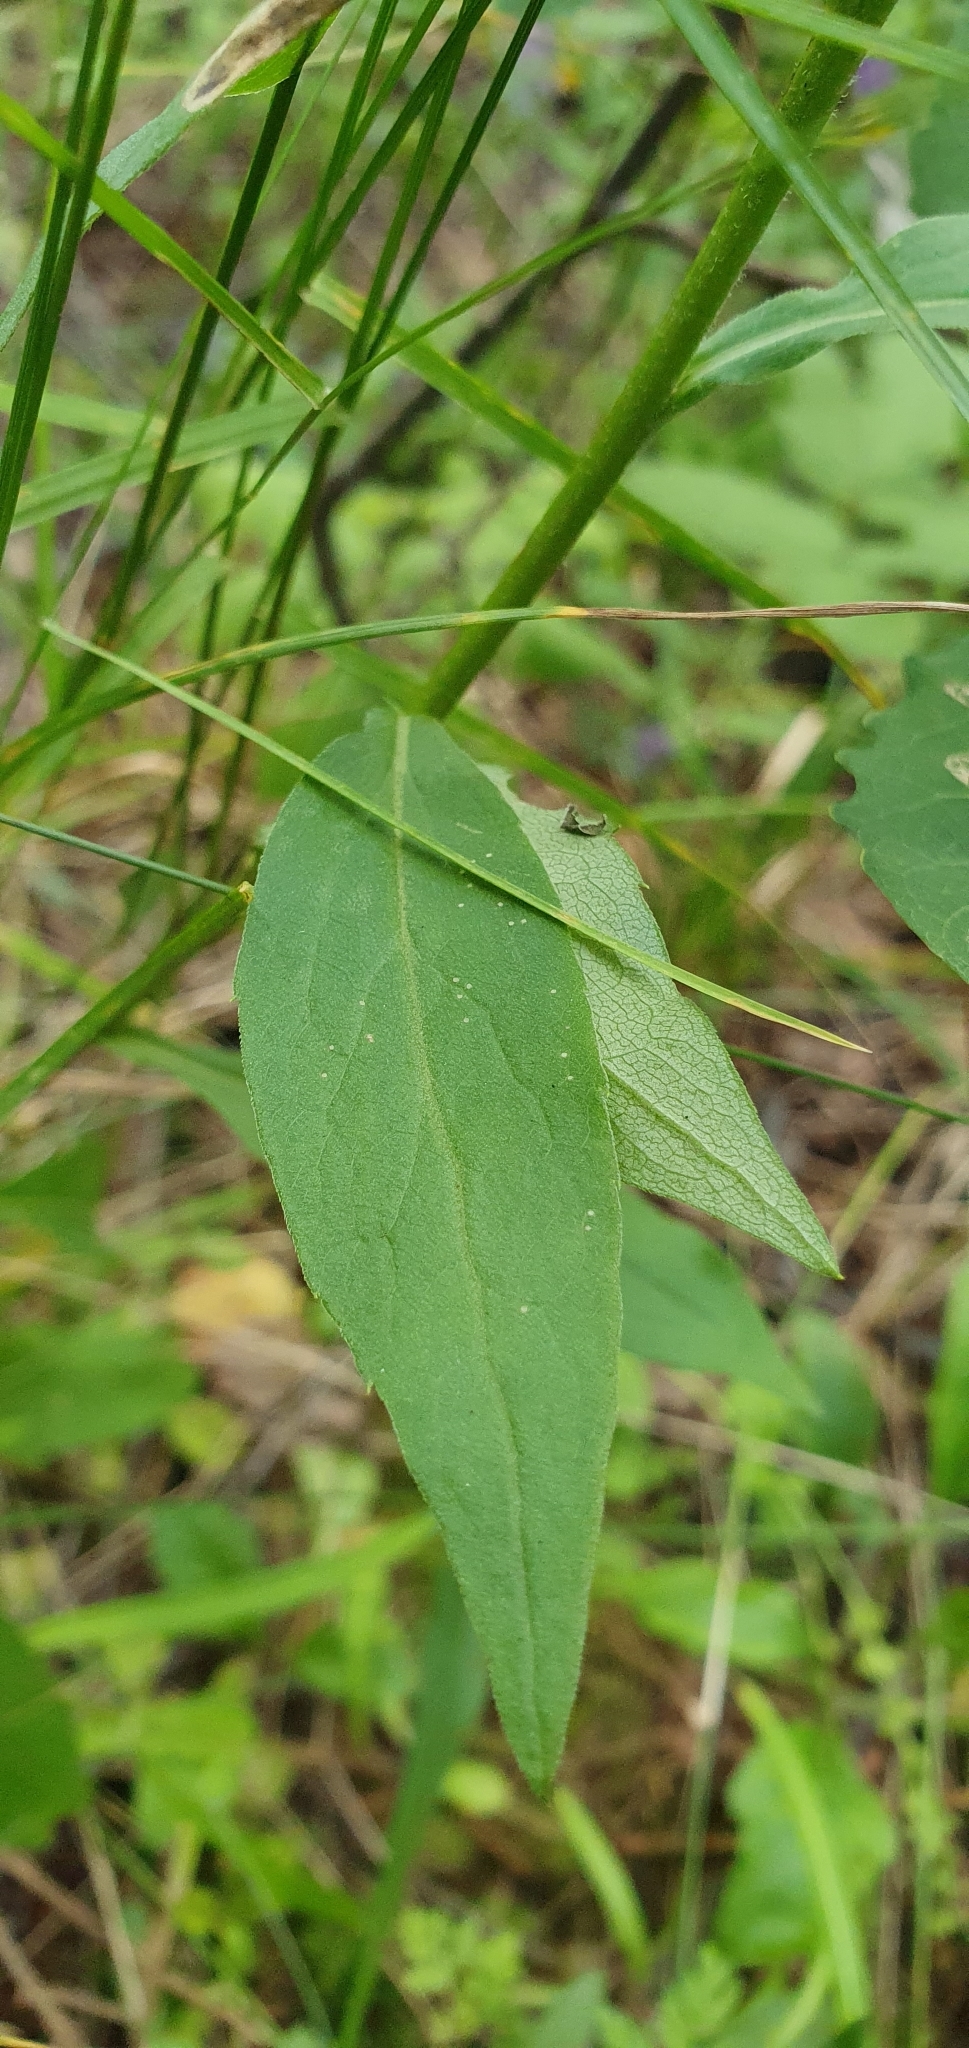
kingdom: Plantae
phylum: Tracheophyta
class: Magnoliopsida
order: Asterales
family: Asteraceae
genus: Solidago
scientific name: Solidago virgaurea
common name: Goldenrod
